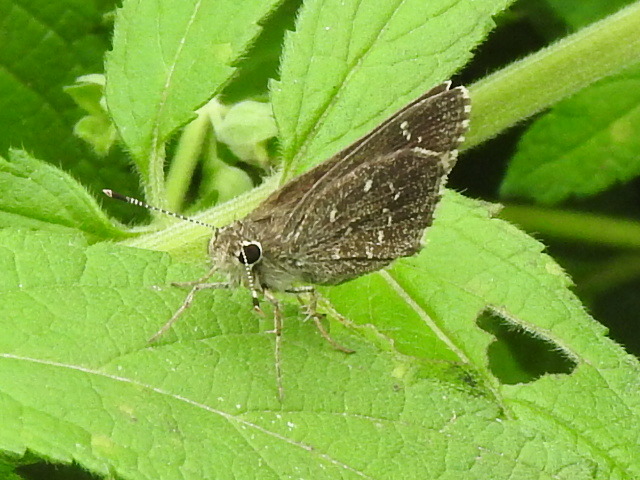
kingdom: Animalia
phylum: Arthropoda
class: Insecta
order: Lepidoptera
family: Hesperiidae
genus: Mastor
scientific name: Mastor celia
